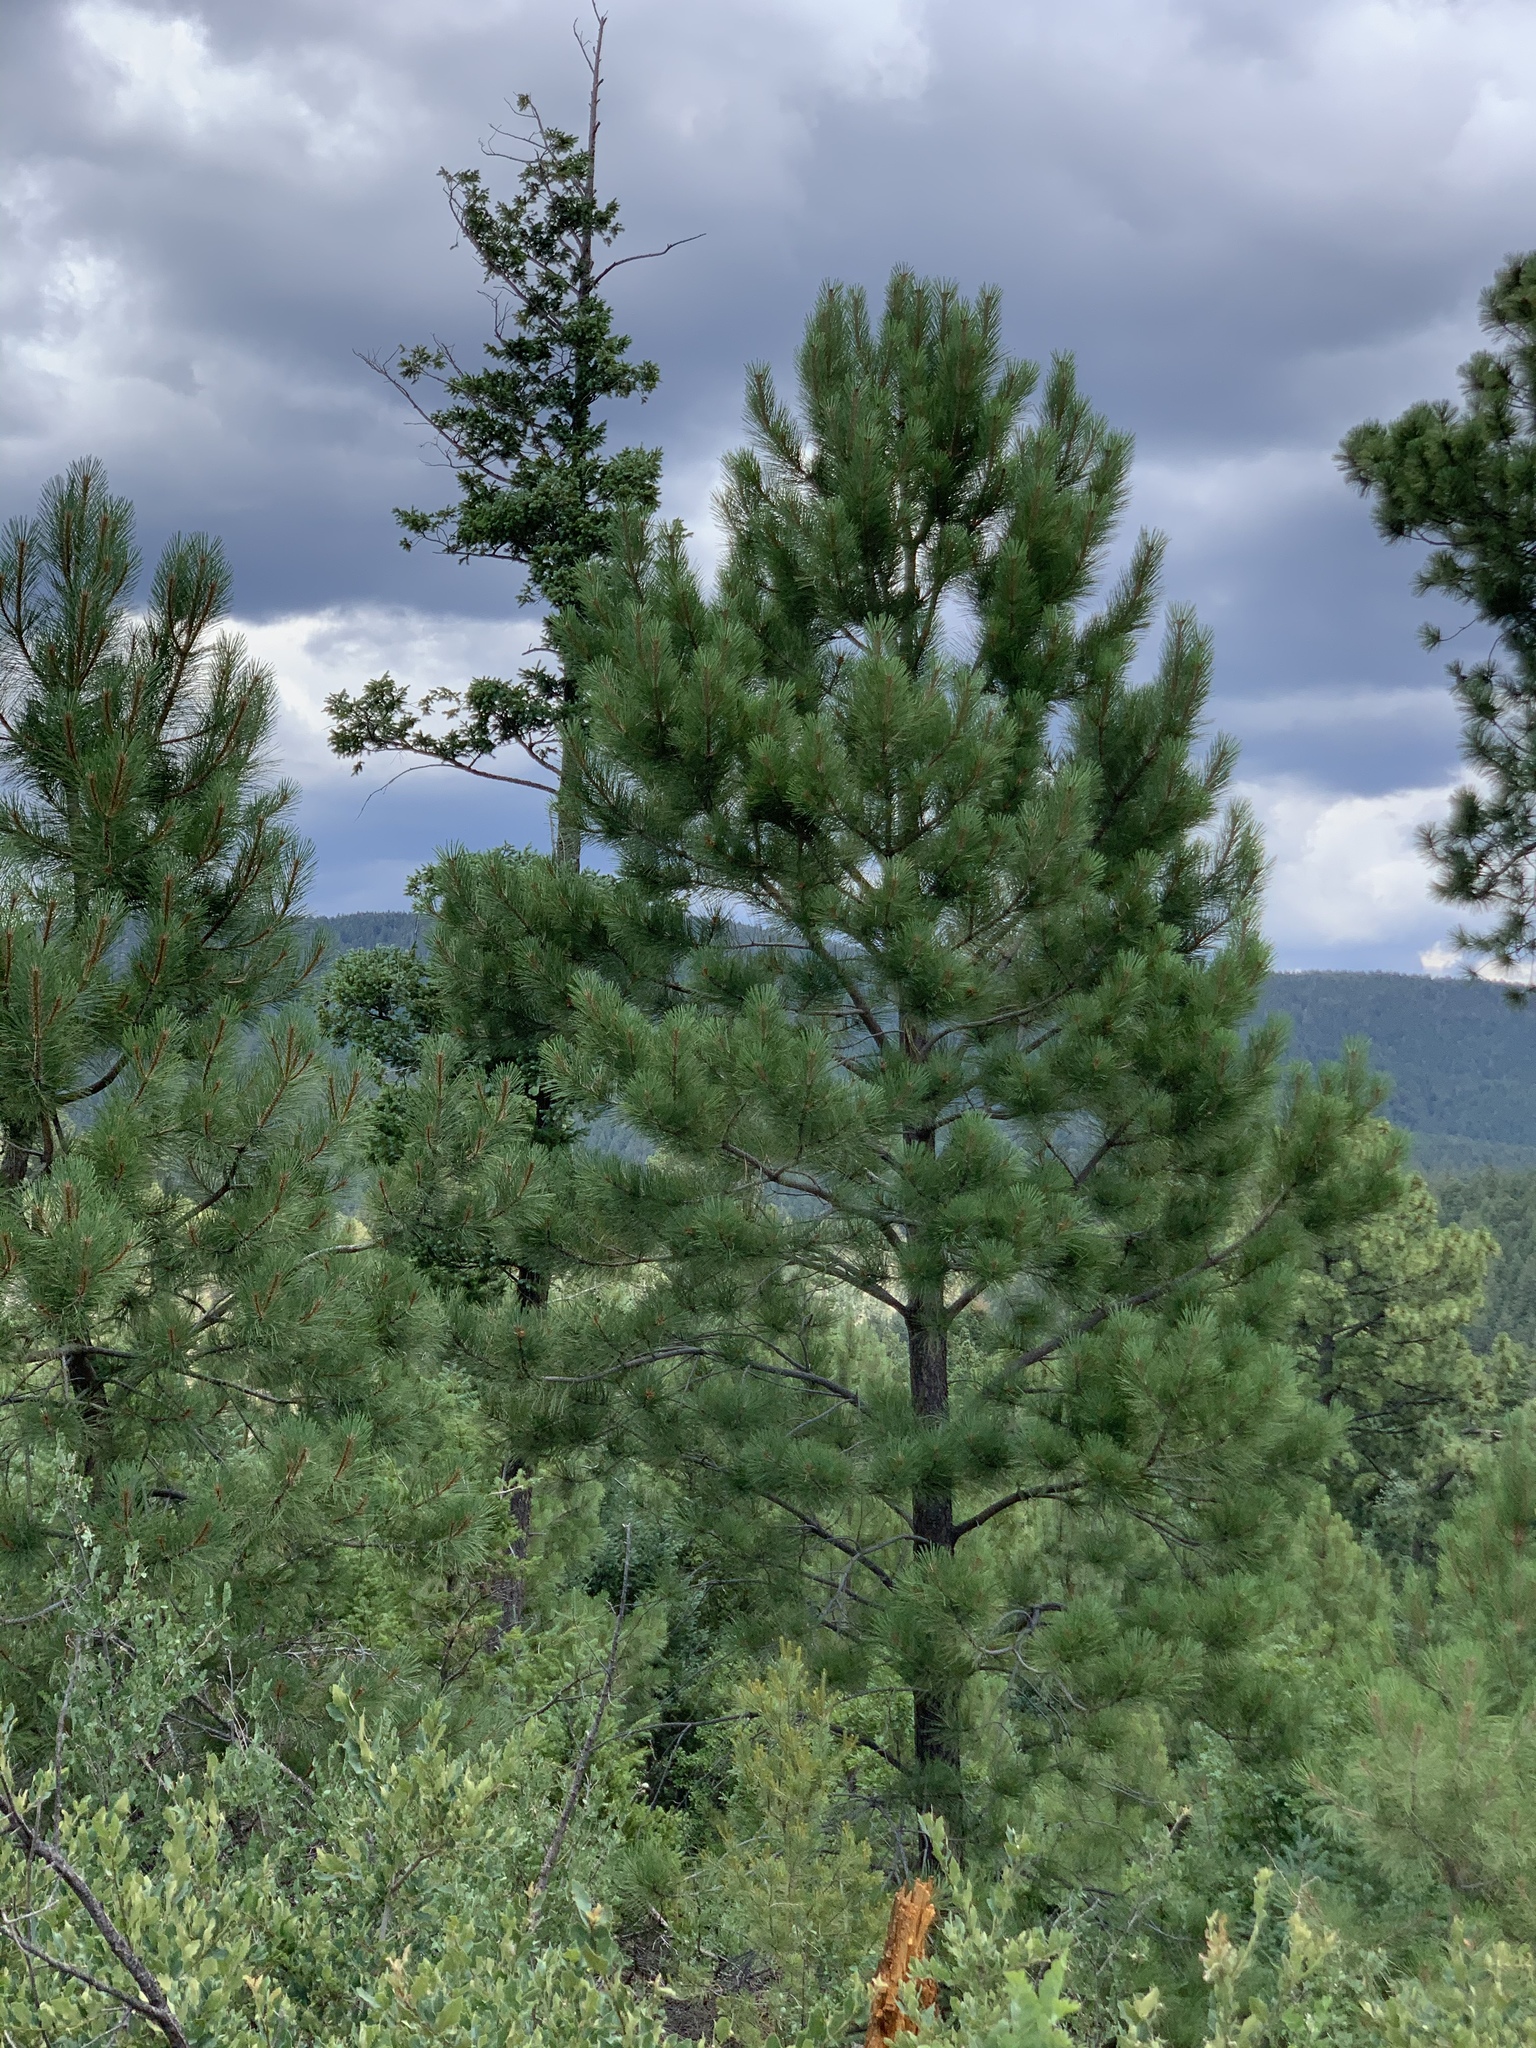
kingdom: Plantae
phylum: Tracheophyta
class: Pinopsida
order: Pinales
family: Pinaceae
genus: Pinus
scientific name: Pinus ponderosa
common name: Western yellow-pine
